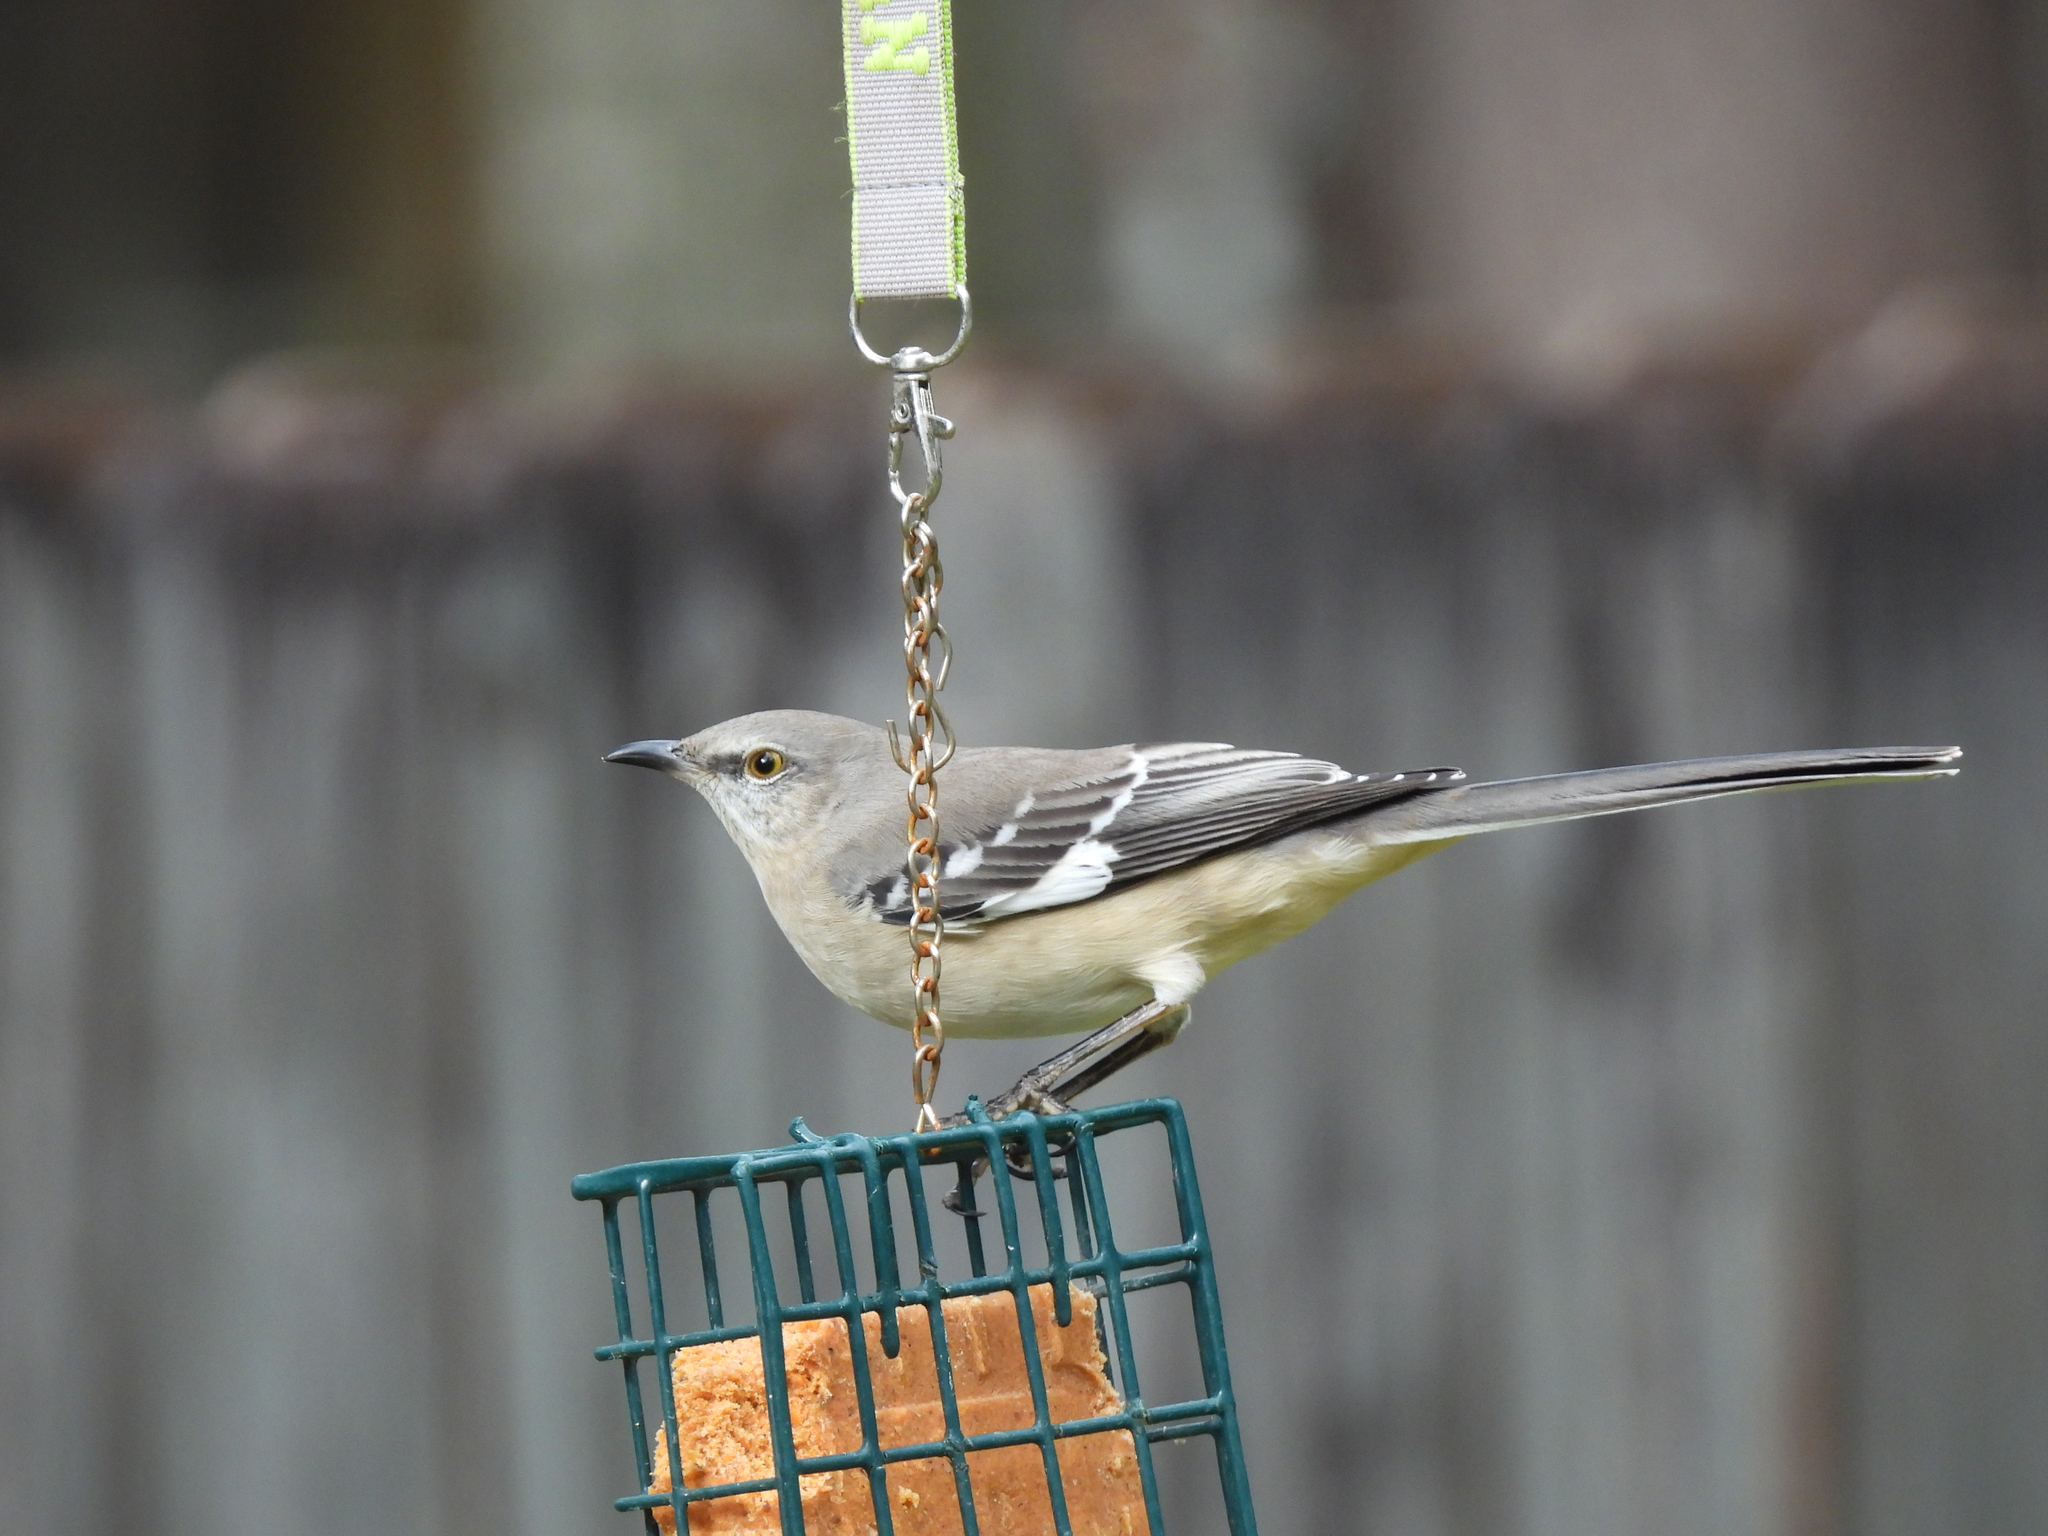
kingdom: Animalia
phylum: Chordata
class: Aves
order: Passeriformes
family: Mimidae
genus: Mimus
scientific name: Mimus polyglottos
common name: Northern mockingbird
